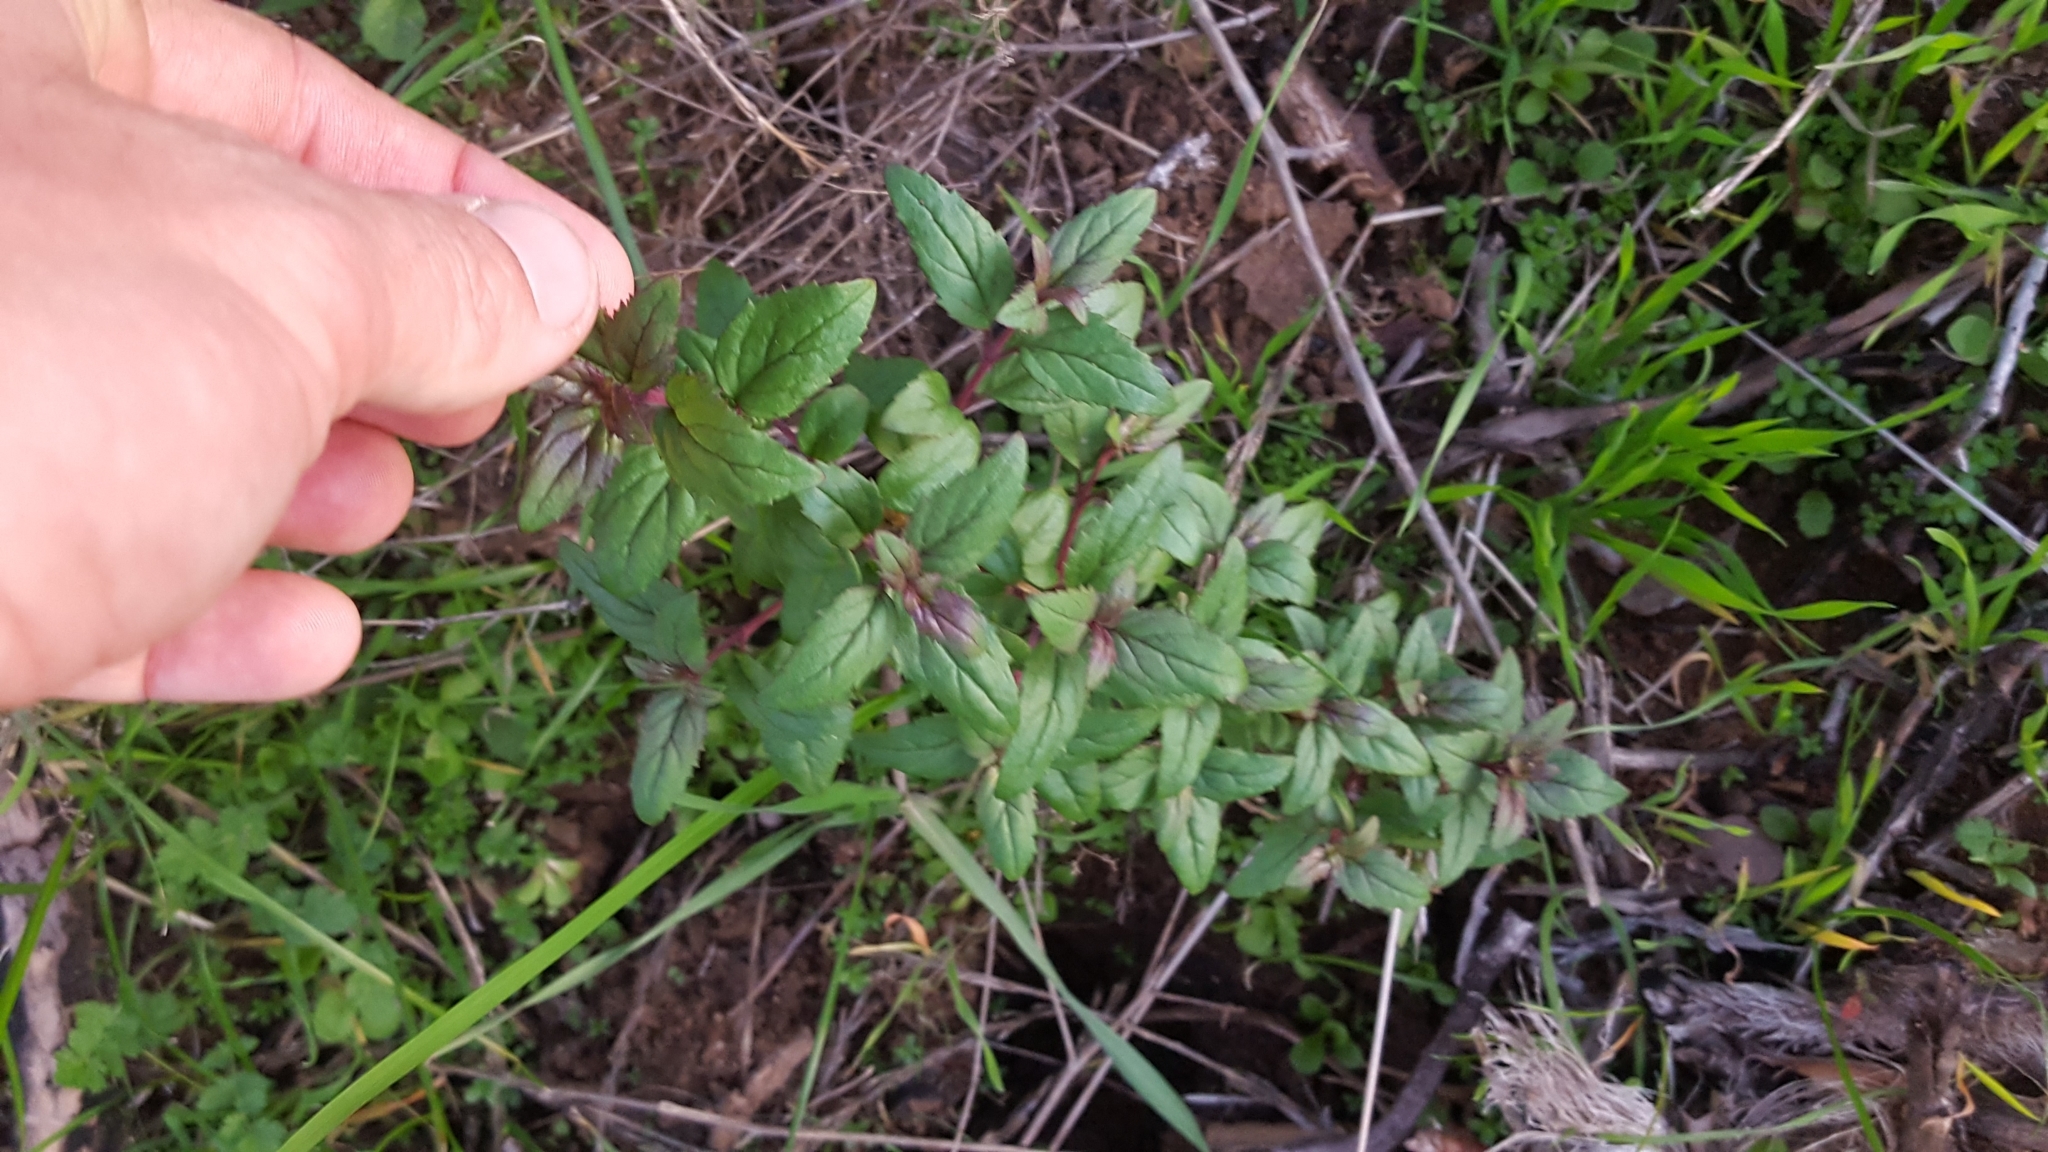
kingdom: Plantae
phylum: Tracheophyta
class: Magnoliopsida
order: Lamiales
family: Plantaginaceae
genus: Keckiella
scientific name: Keckiella cordifolia
